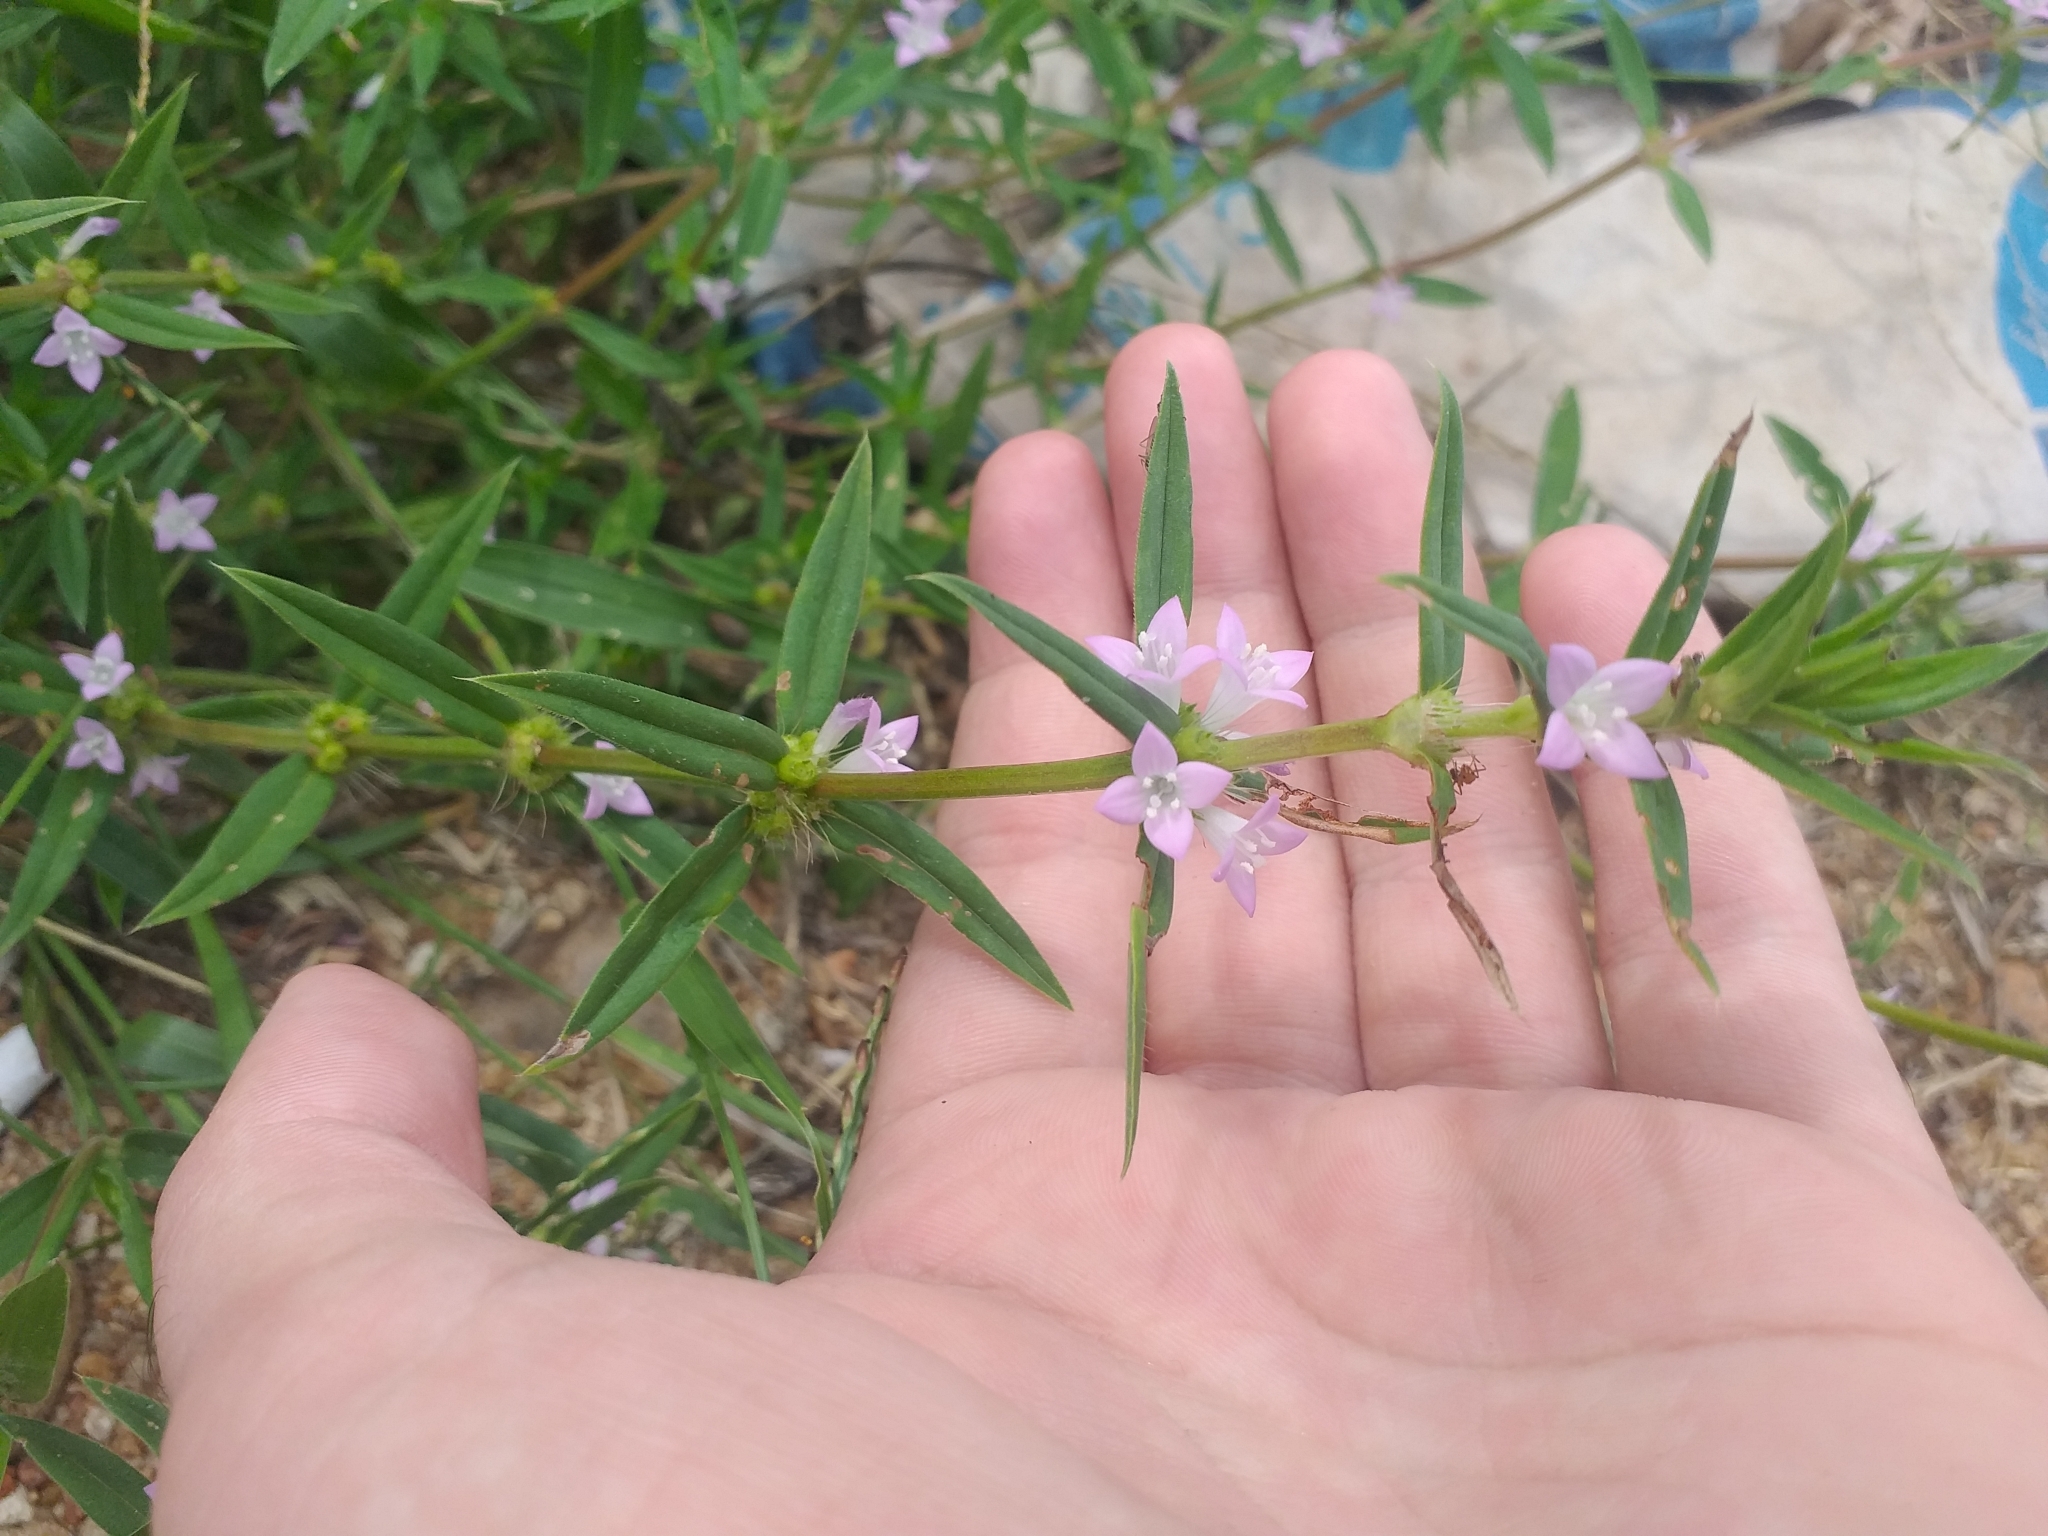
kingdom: Plantae
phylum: Tracheophyta
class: Magnoliopsida
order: Gentianales
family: Rubiaceae
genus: Hexasepalum
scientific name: Hexasepalum teres
